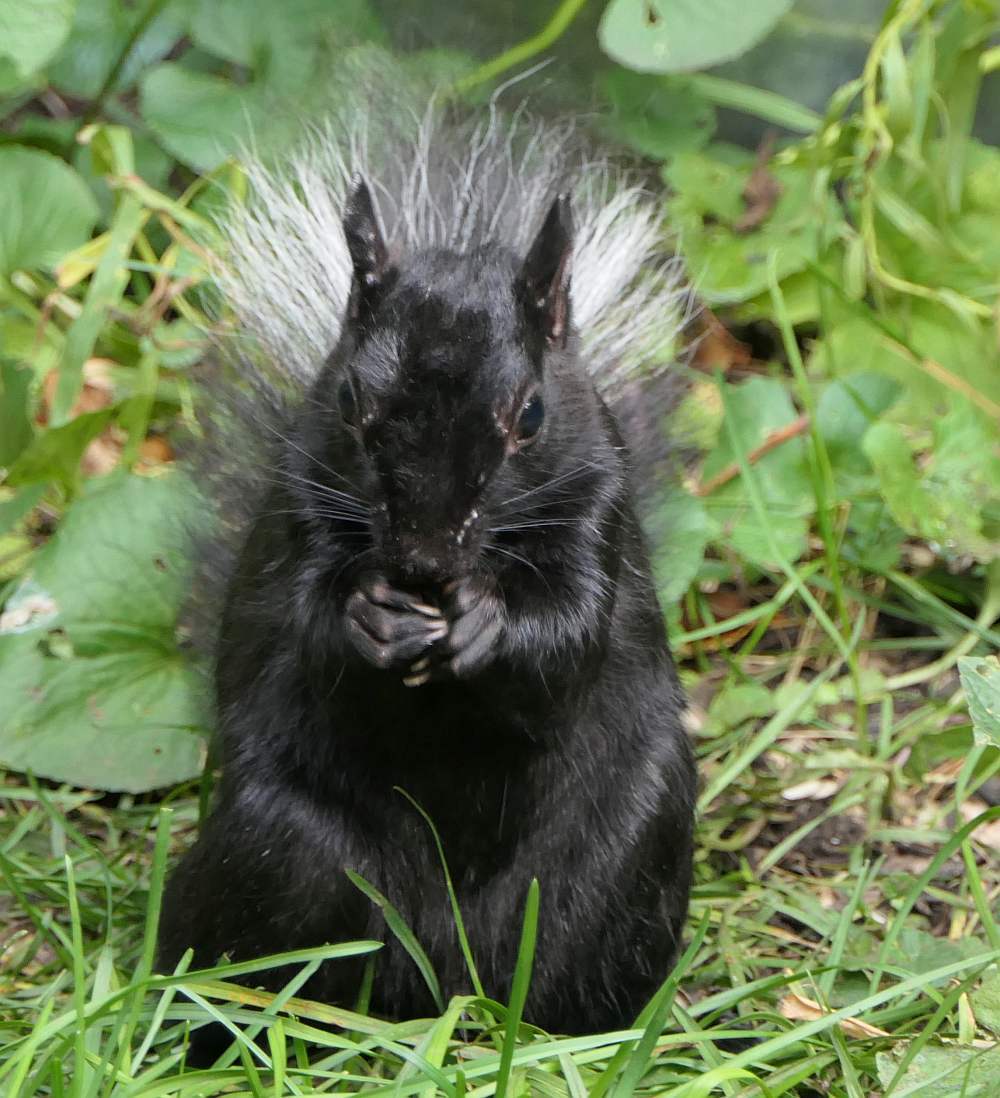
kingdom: Animalia
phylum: Chordata
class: Mammalia
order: Rodentia
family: Sciuridae
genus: Sciurus
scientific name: Sciurus carolinensis
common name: Eastern gray squirrel
